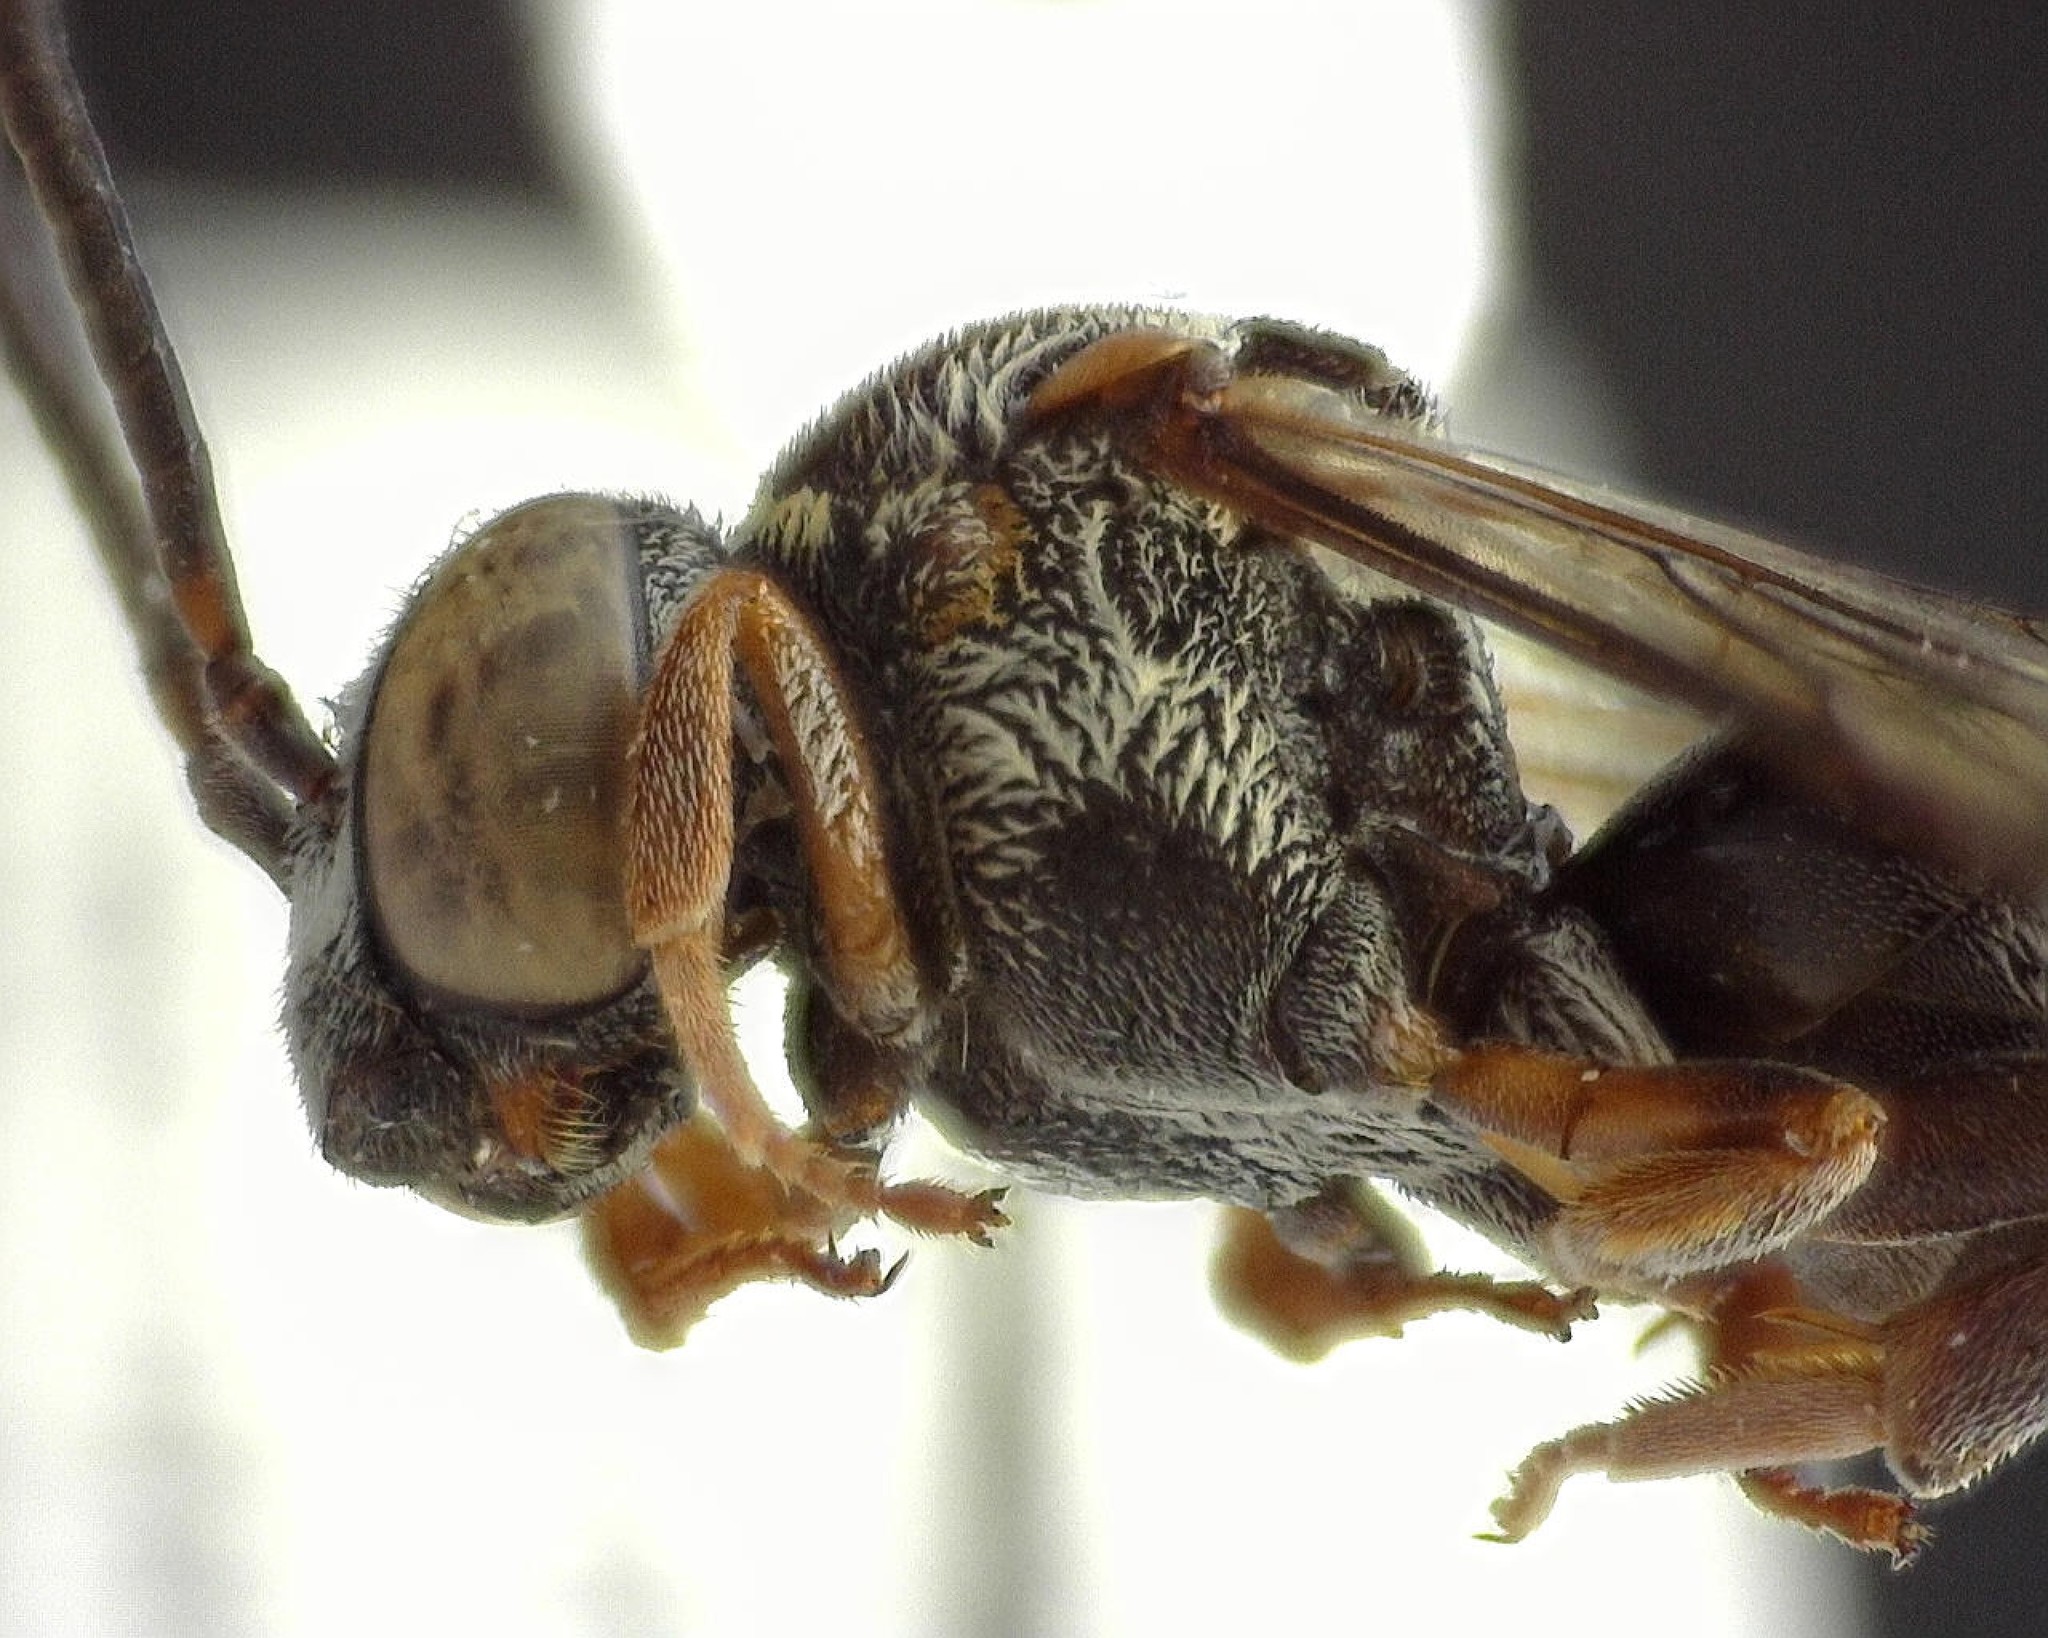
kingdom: Animalia
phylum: Arthropoda
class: Insecta
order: Hymenoptera
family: Apidae
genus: Epeolus
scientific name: Epeolus inornatus
